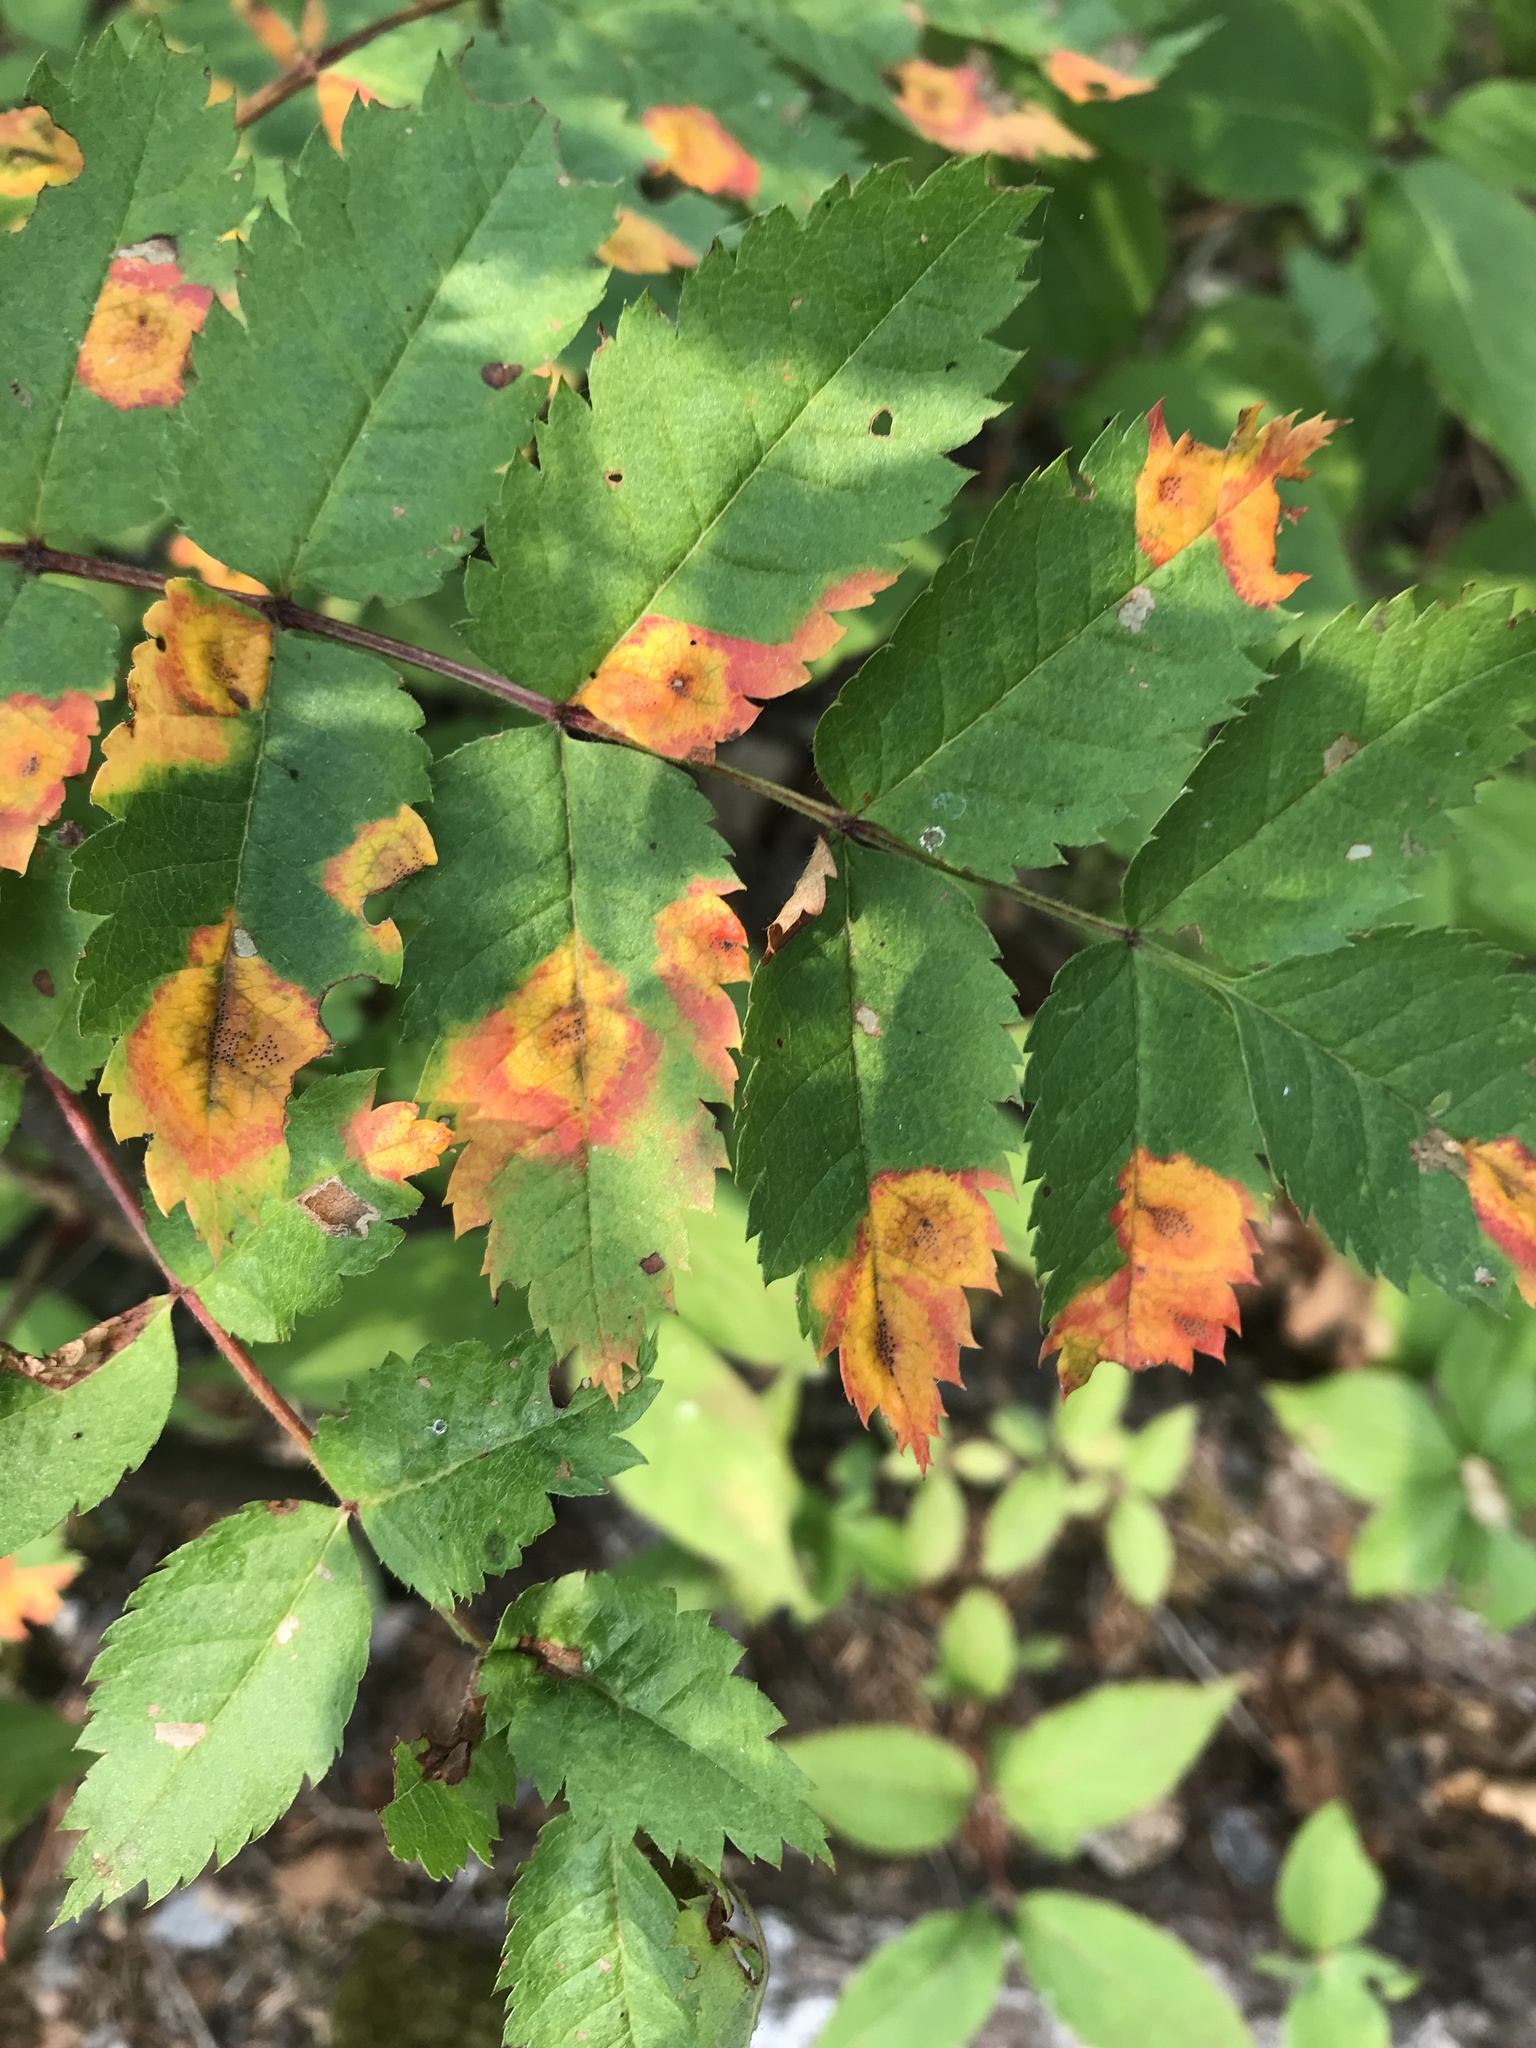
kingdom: Plantae
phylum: Tracheophyta
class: Magnoliopsida
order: Rosales
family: Rosaceae
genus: Sorbus
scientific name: Sorbus decora
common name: Northern mountain-ash
